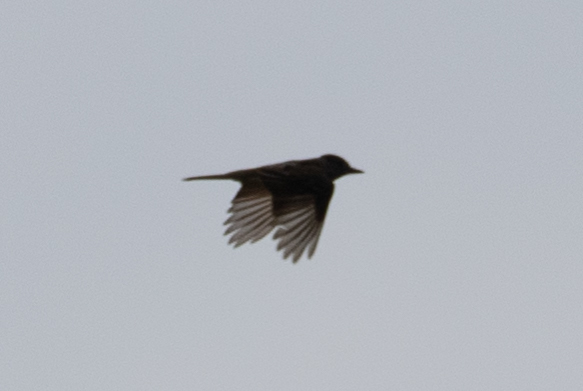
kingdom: Animalia
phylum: Chordata
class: Aves
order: Passeriformes
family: Tyrannidae
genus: Myiarchus
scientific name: Myiarchus crinitus
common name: Great crested flycatcher
